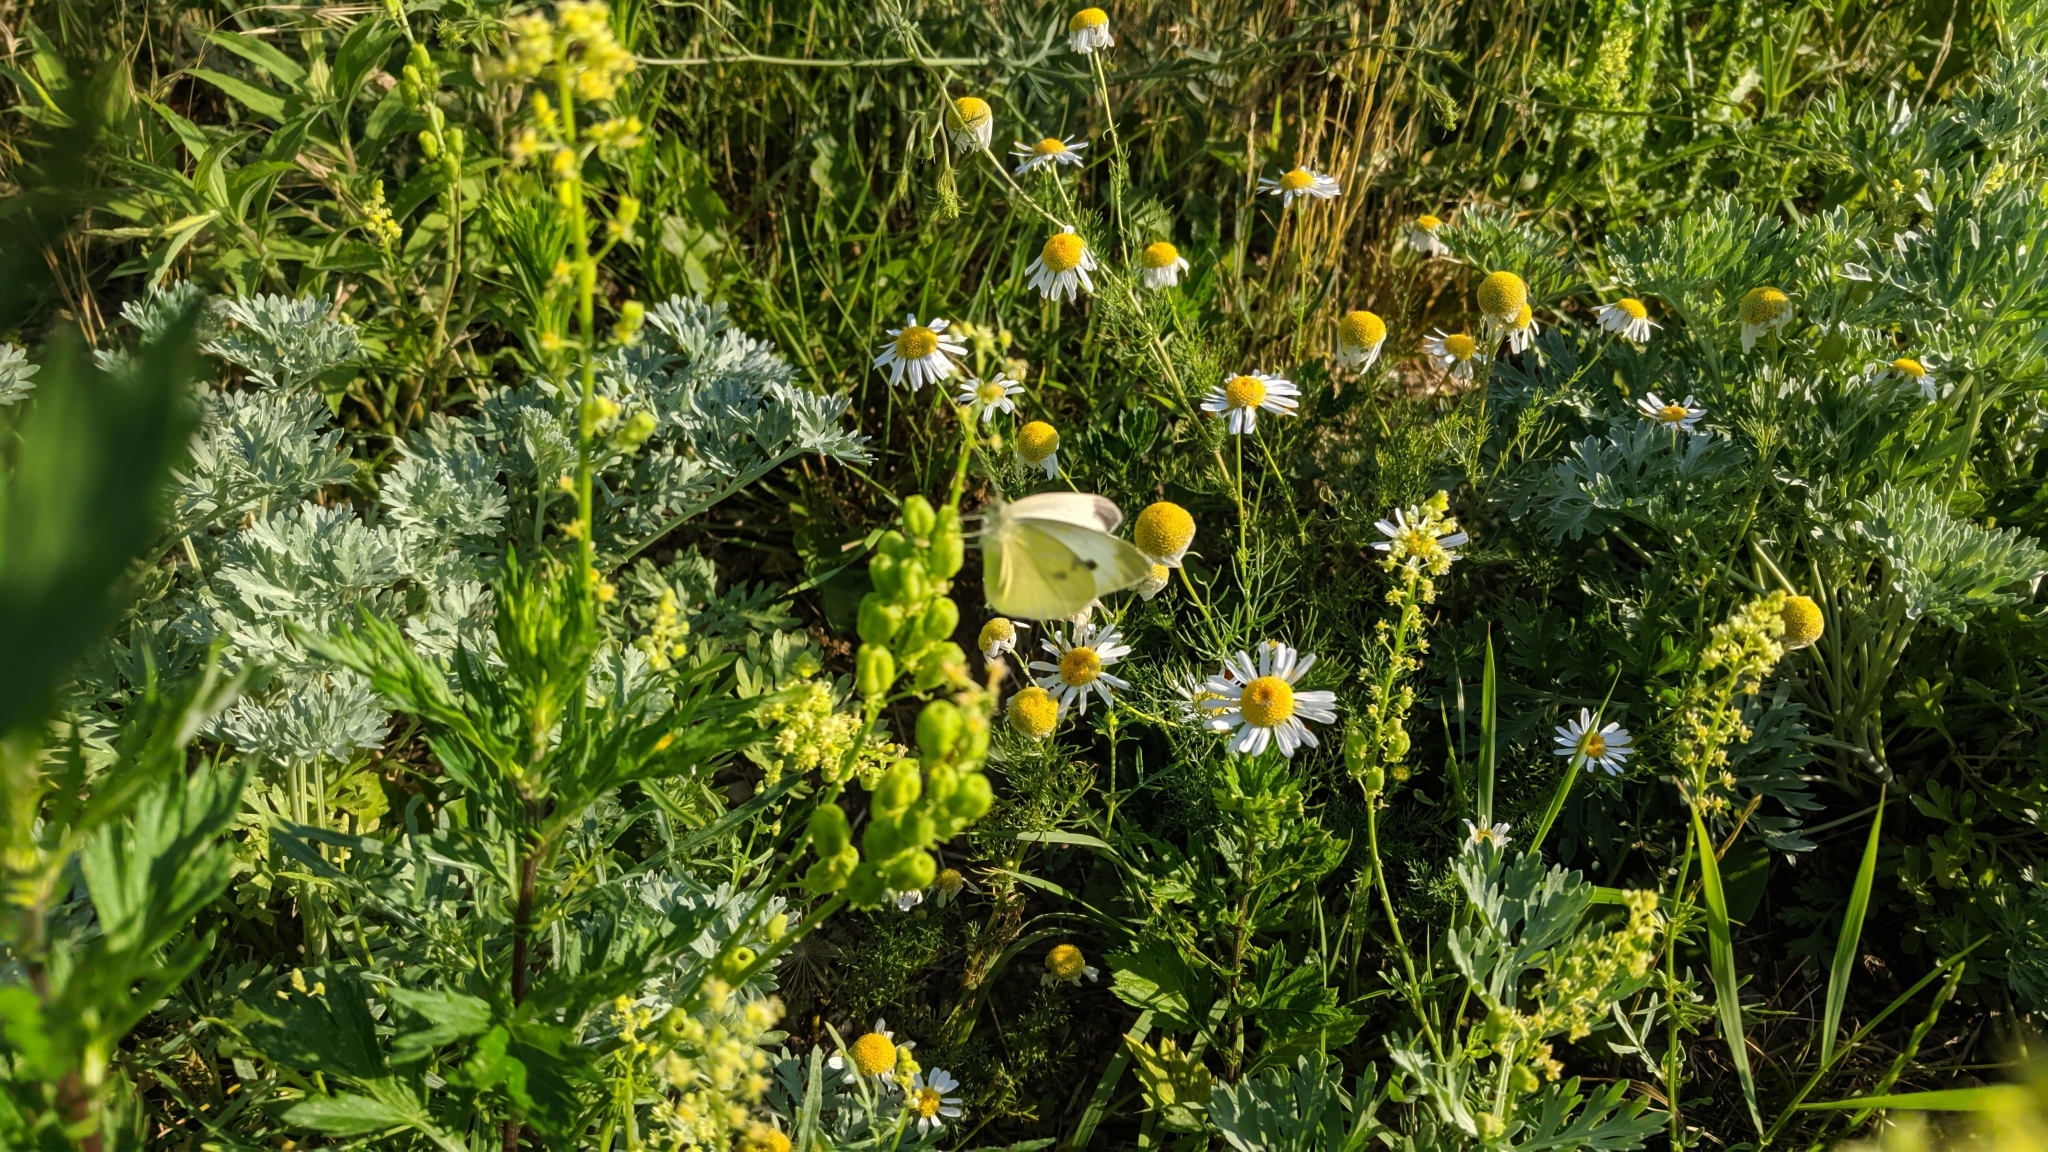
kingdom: Animalia
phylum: Arthropoda
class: Insecta
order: Lepidoptera
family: Pieridae
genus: Pieris
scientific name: Pieris rapae
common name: Small white
